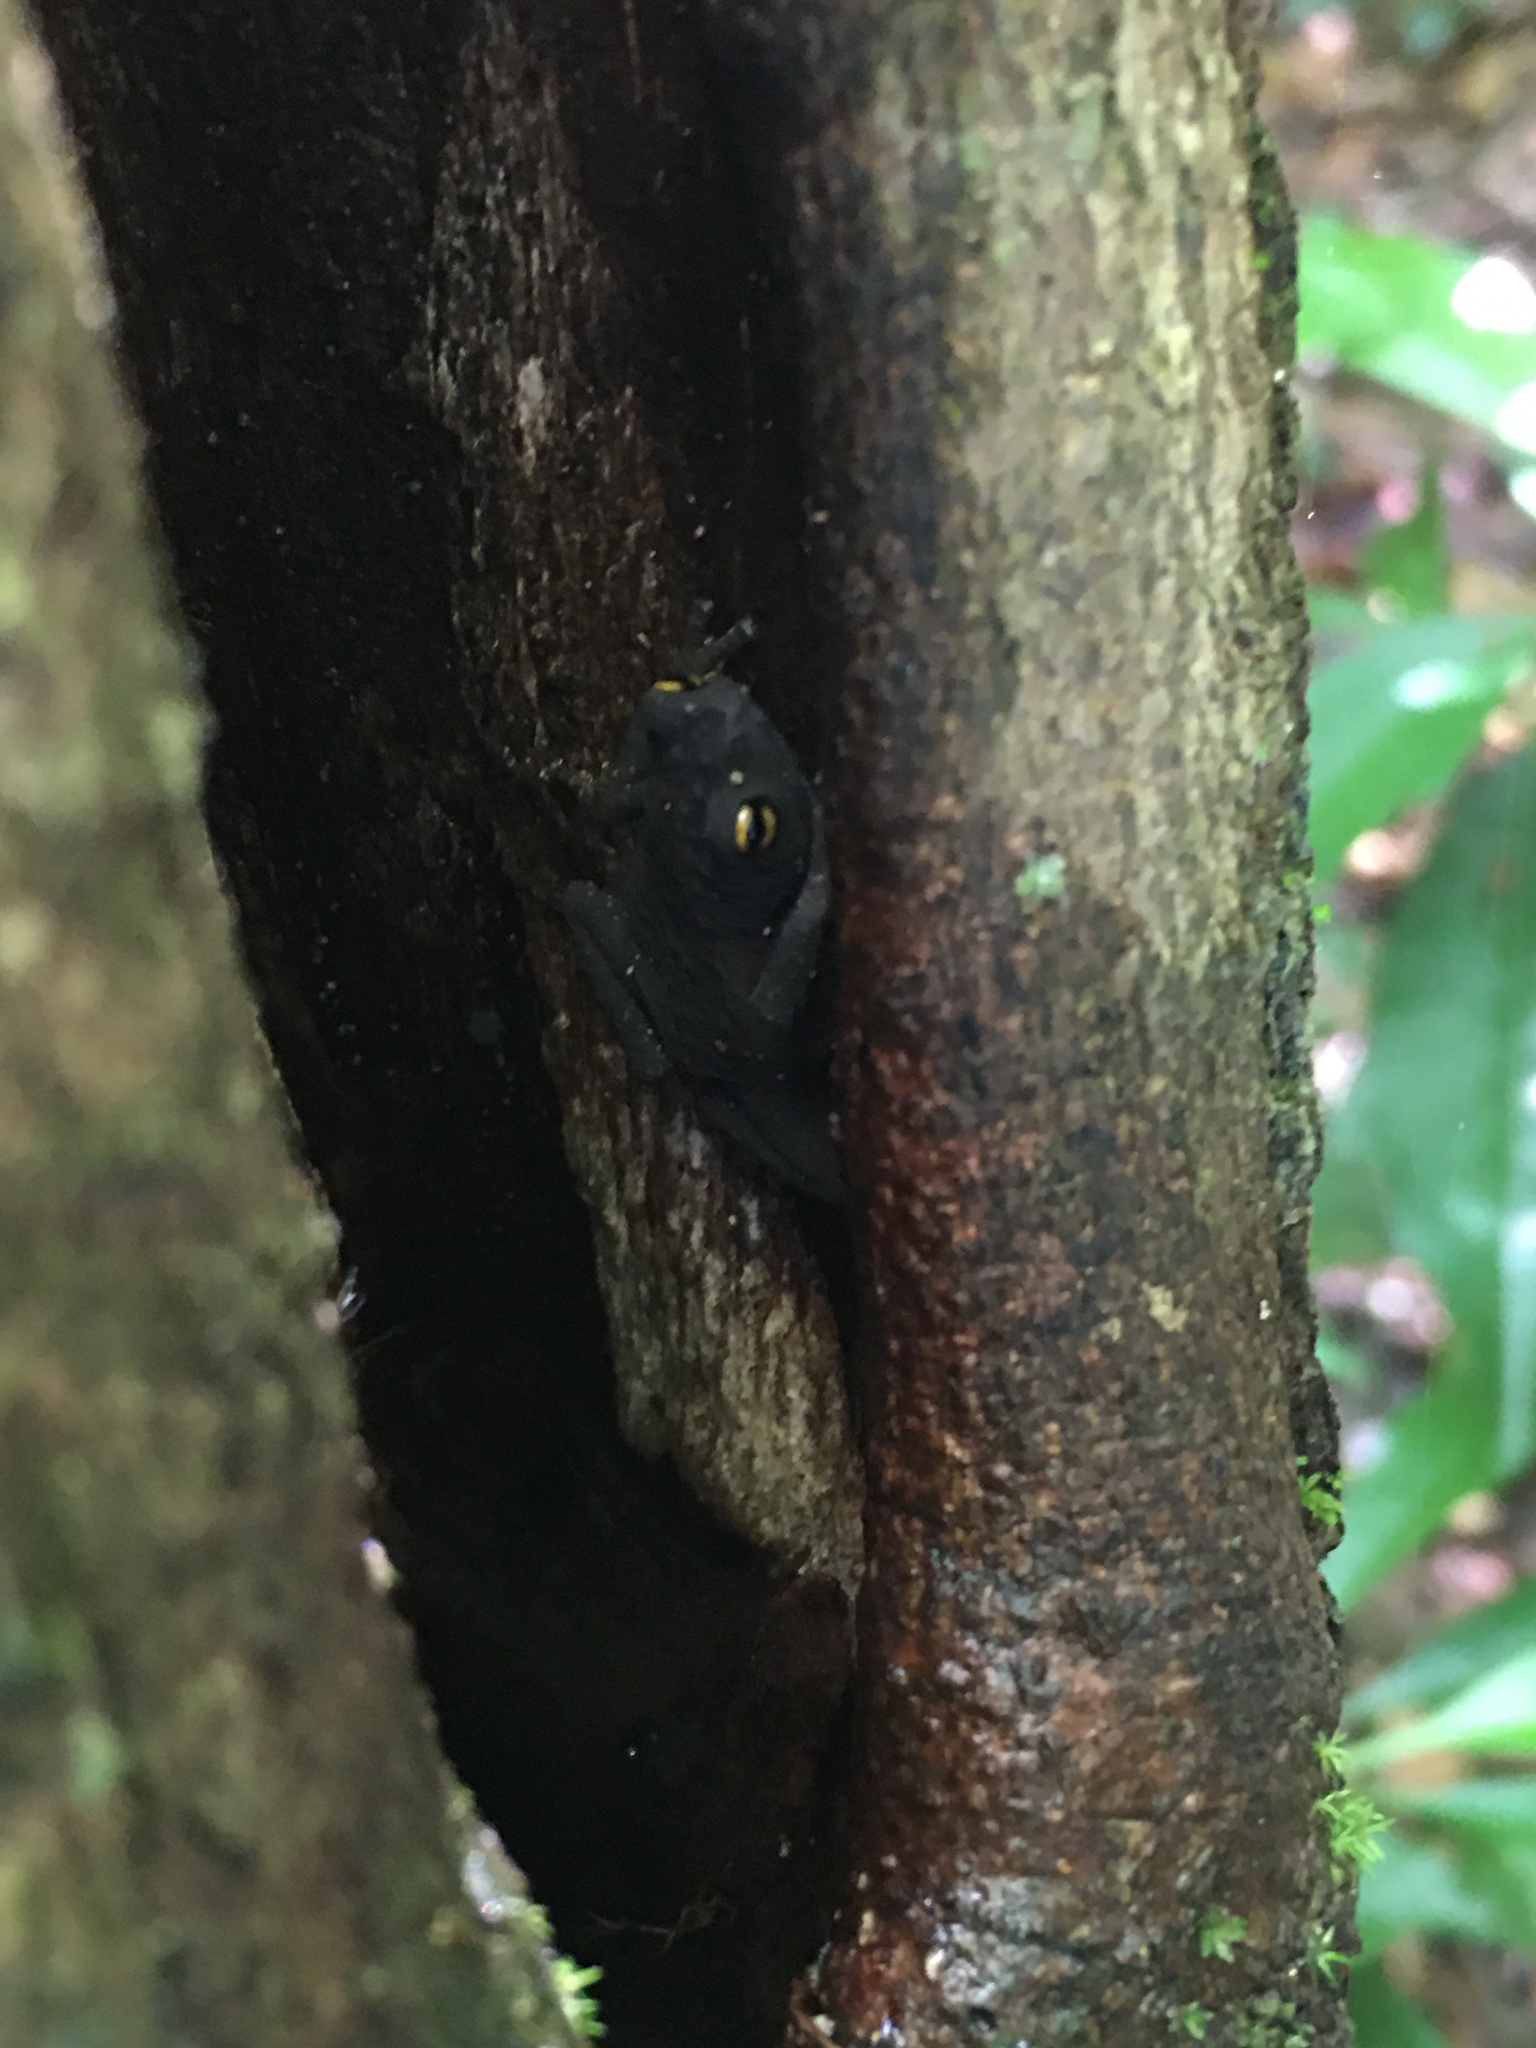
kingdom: Animalia
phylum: Chordata
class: Amphibia
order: Anura
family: Bufonidae
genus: Frostius
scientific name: Frostius pernambucensis
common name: Frost’s toad
